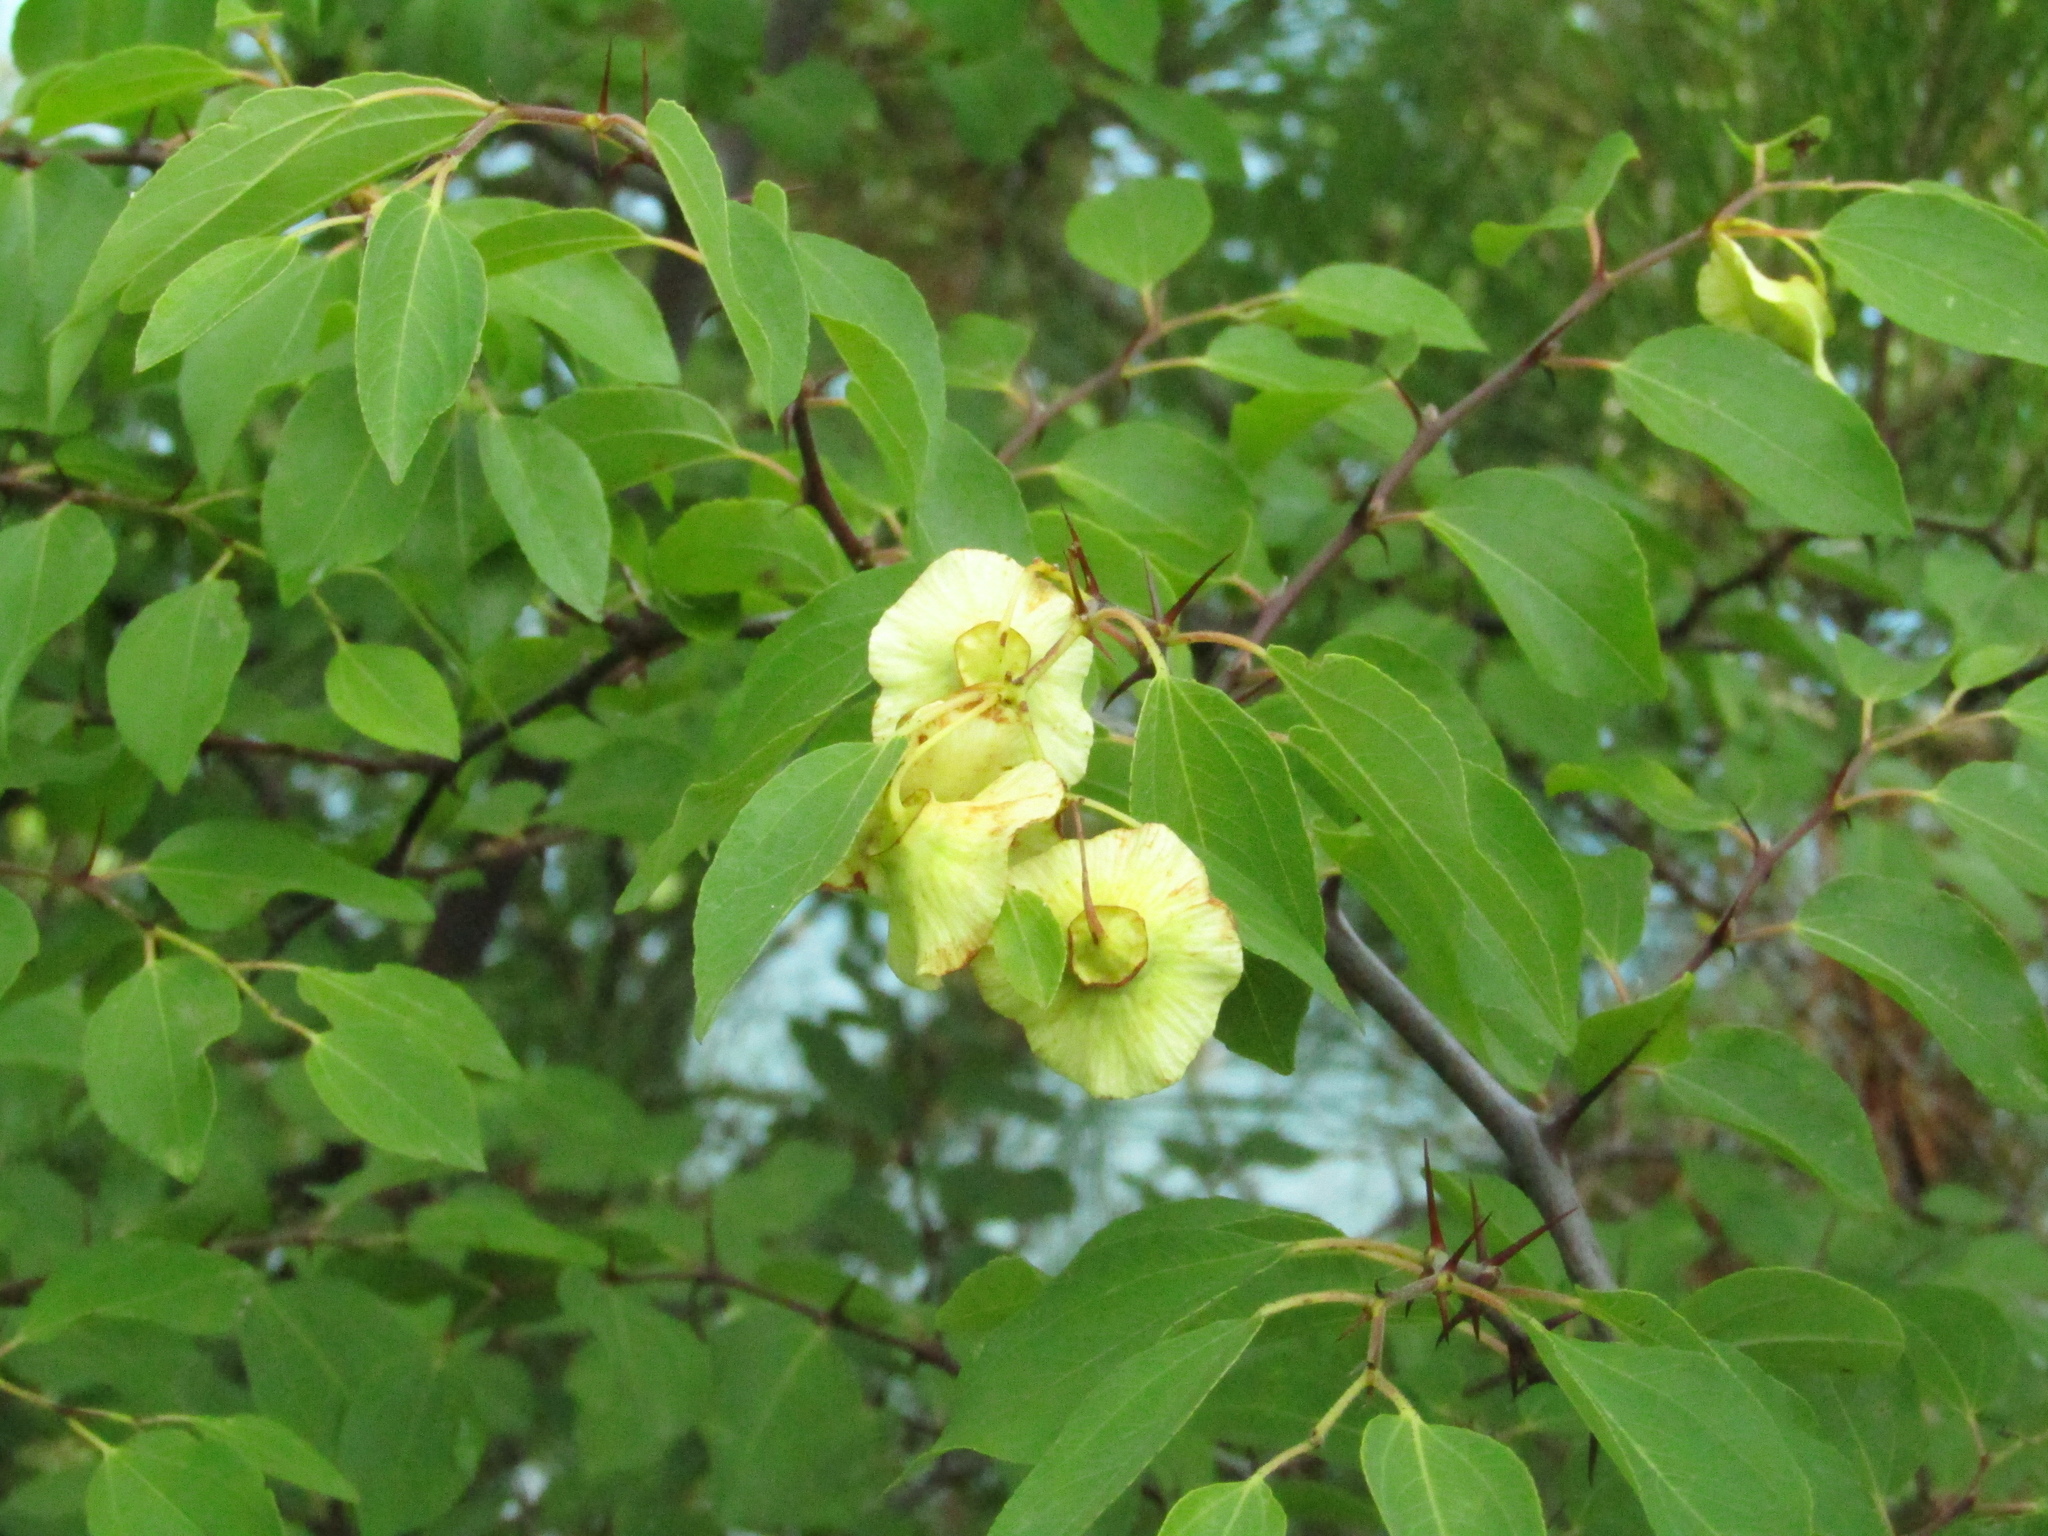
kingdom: Plantae
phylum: Tracheophyta
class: Magnoliopsida
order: Rosales
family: Rhamnaceae
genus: Paliurus
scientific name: Paliurus spina-christi
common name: Jeruselem thorn
